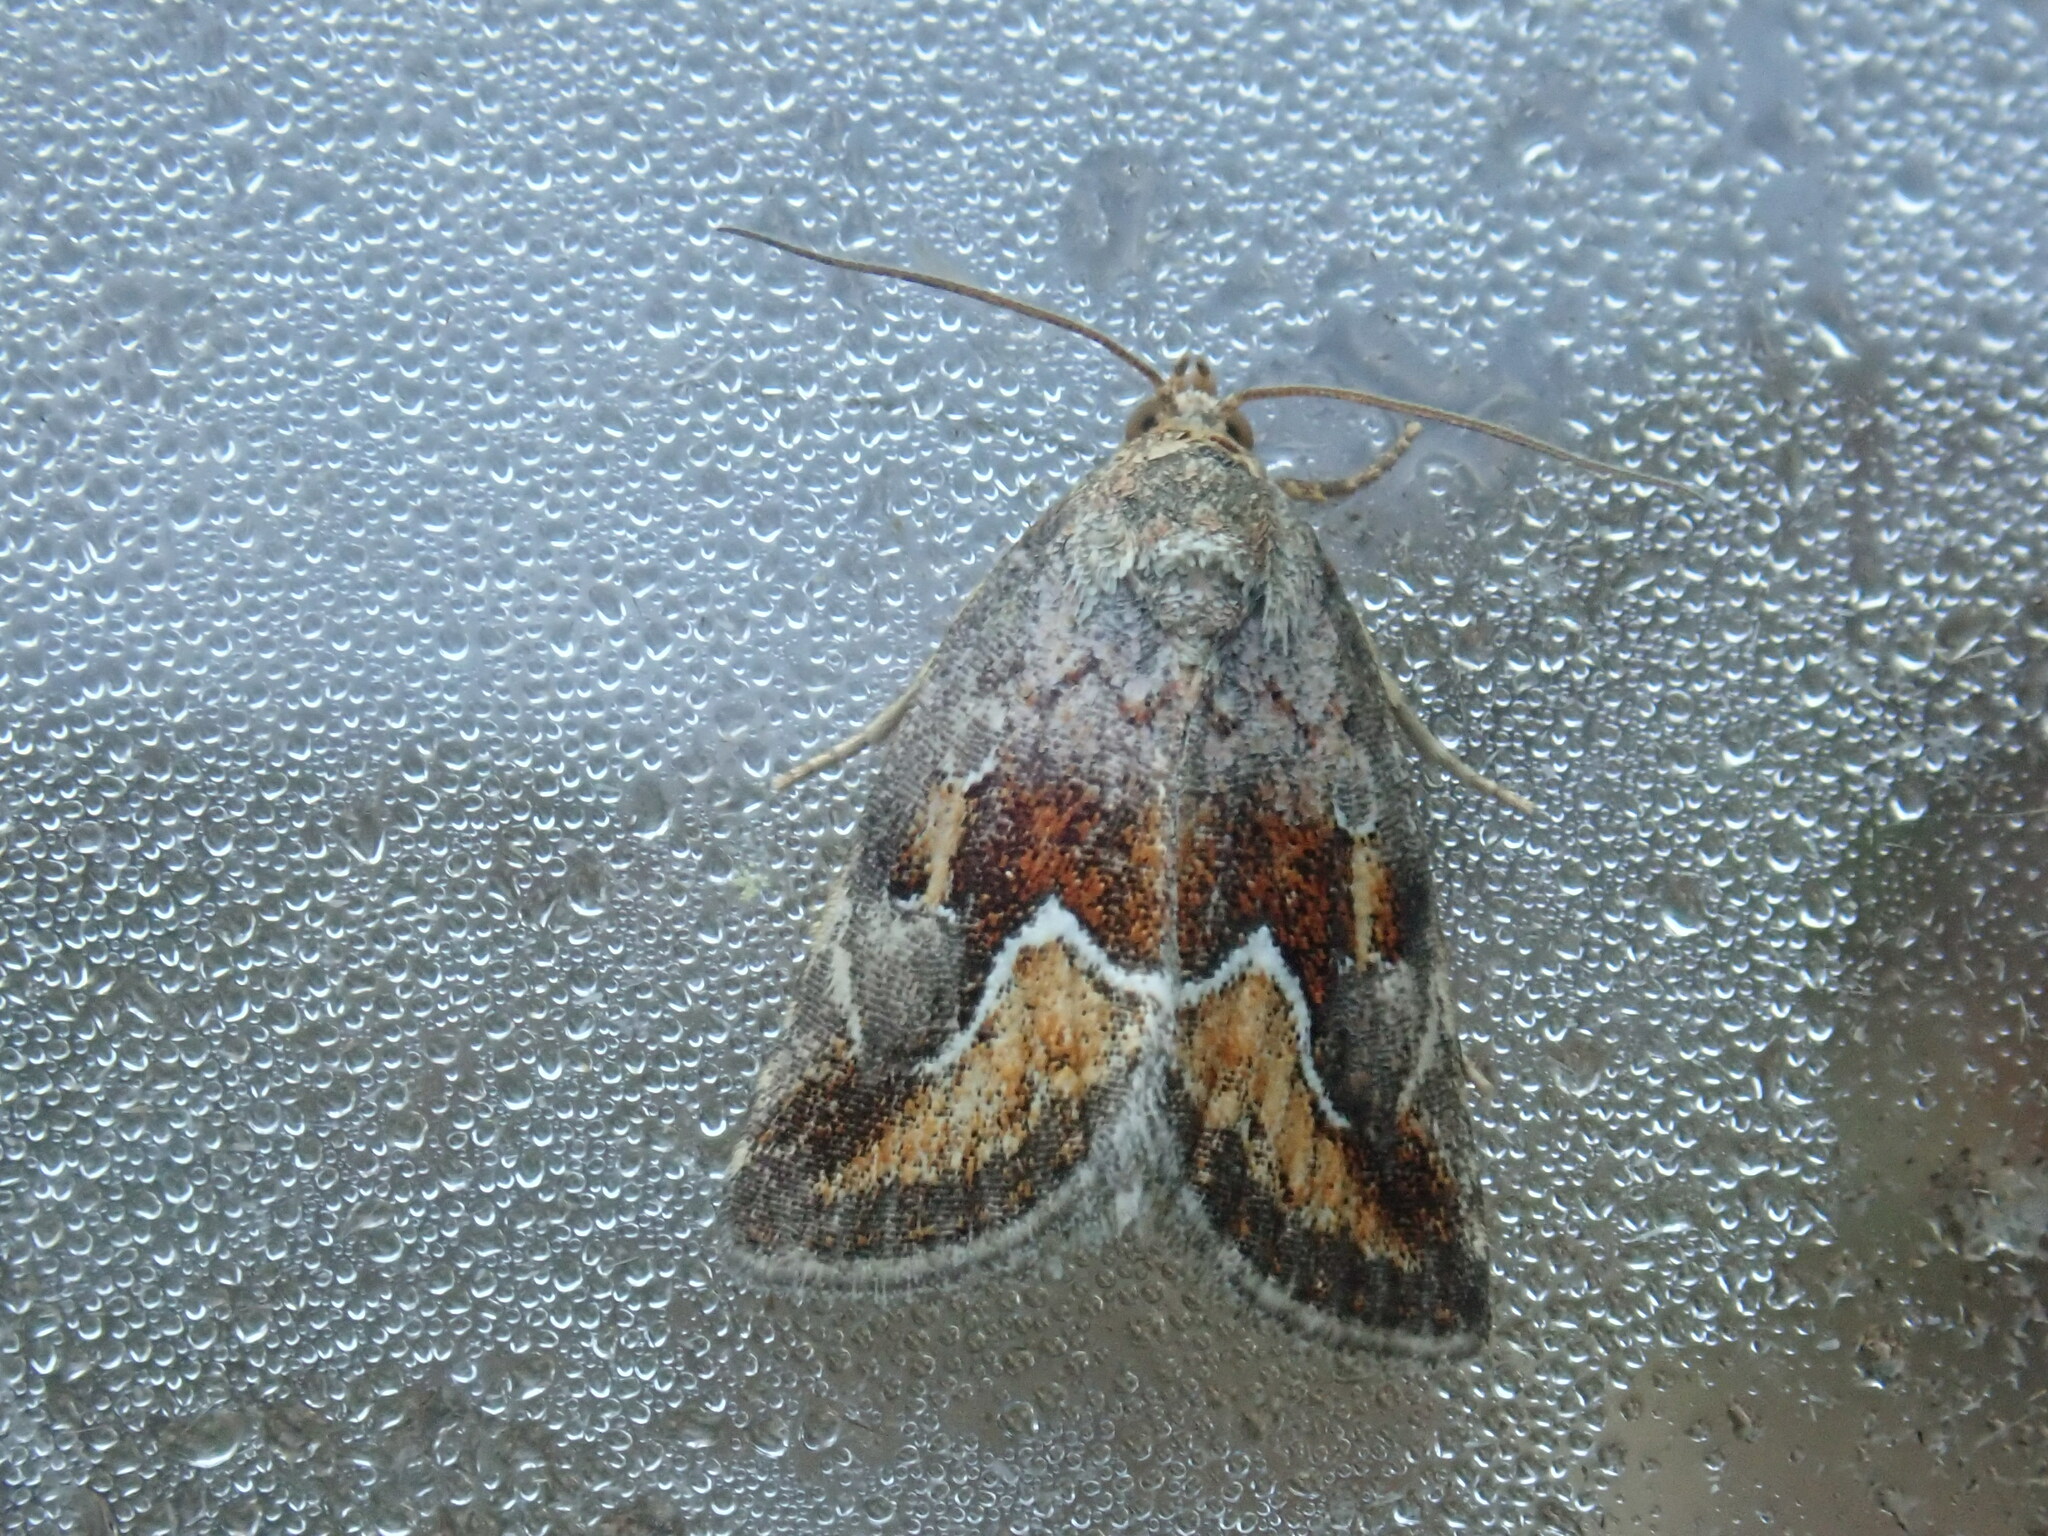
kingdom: Animalia
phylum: Arthropoda
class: Insecta
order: Lepidoptera
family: Noctuidae
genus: Deltote
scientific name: Deltote bellicula
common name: Bog glyph
